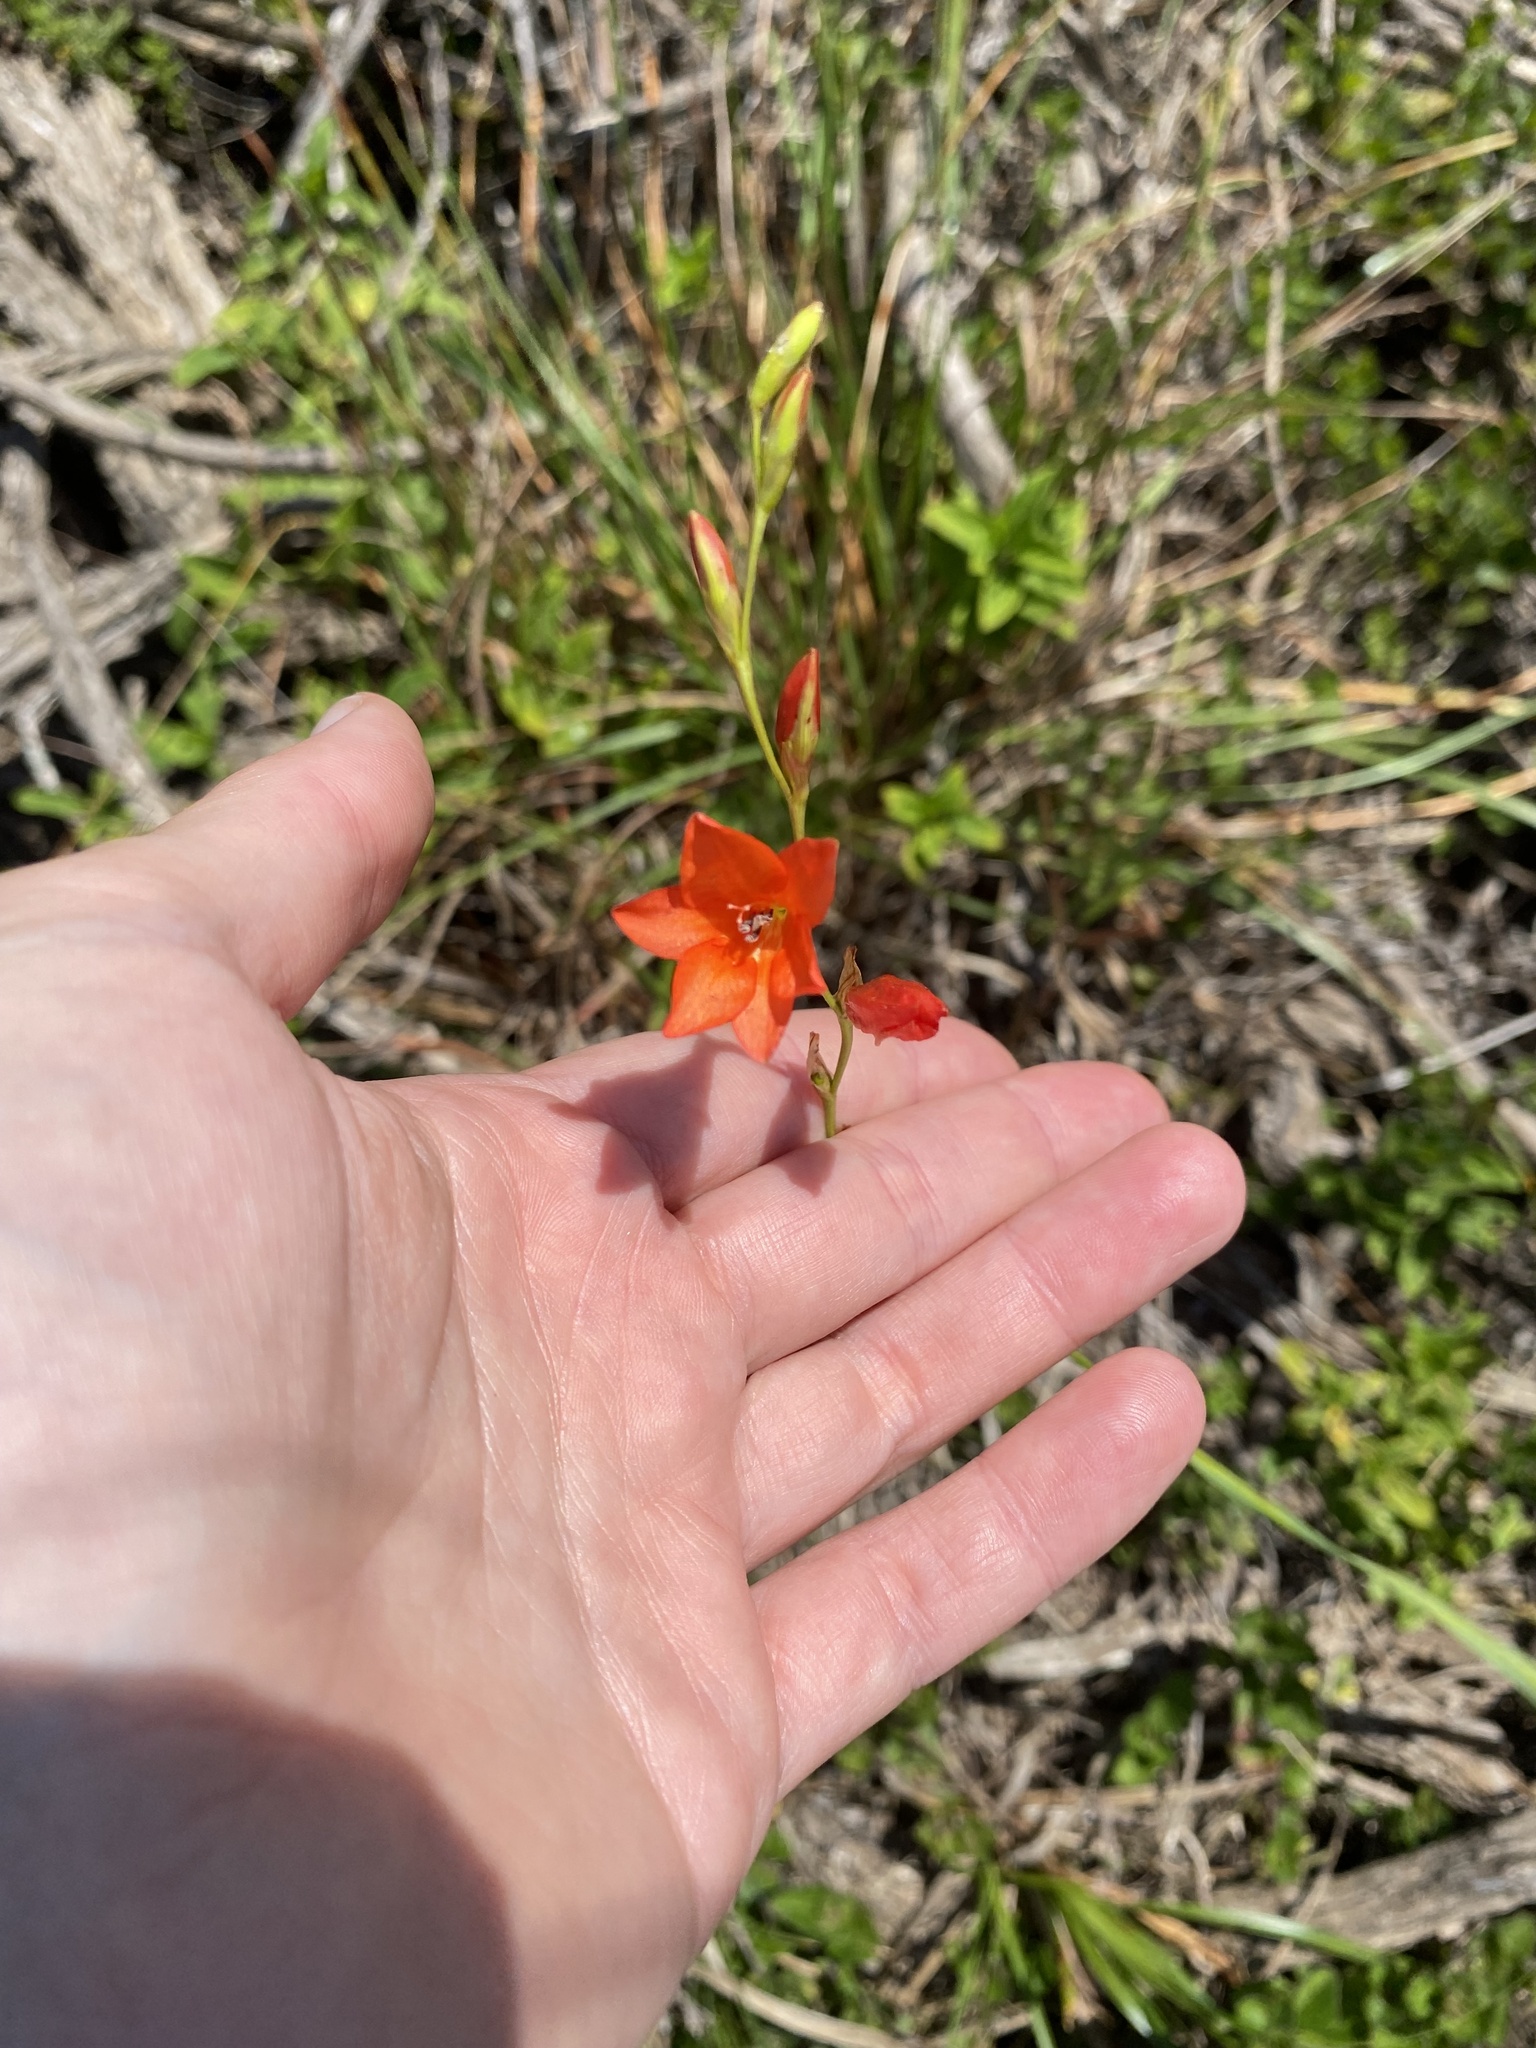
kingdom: Plantae
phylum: Tracheophyta
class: Liliopsida
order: Asparagales
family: Iridaceae
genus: Tritonia
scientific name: Tritonia disticha
